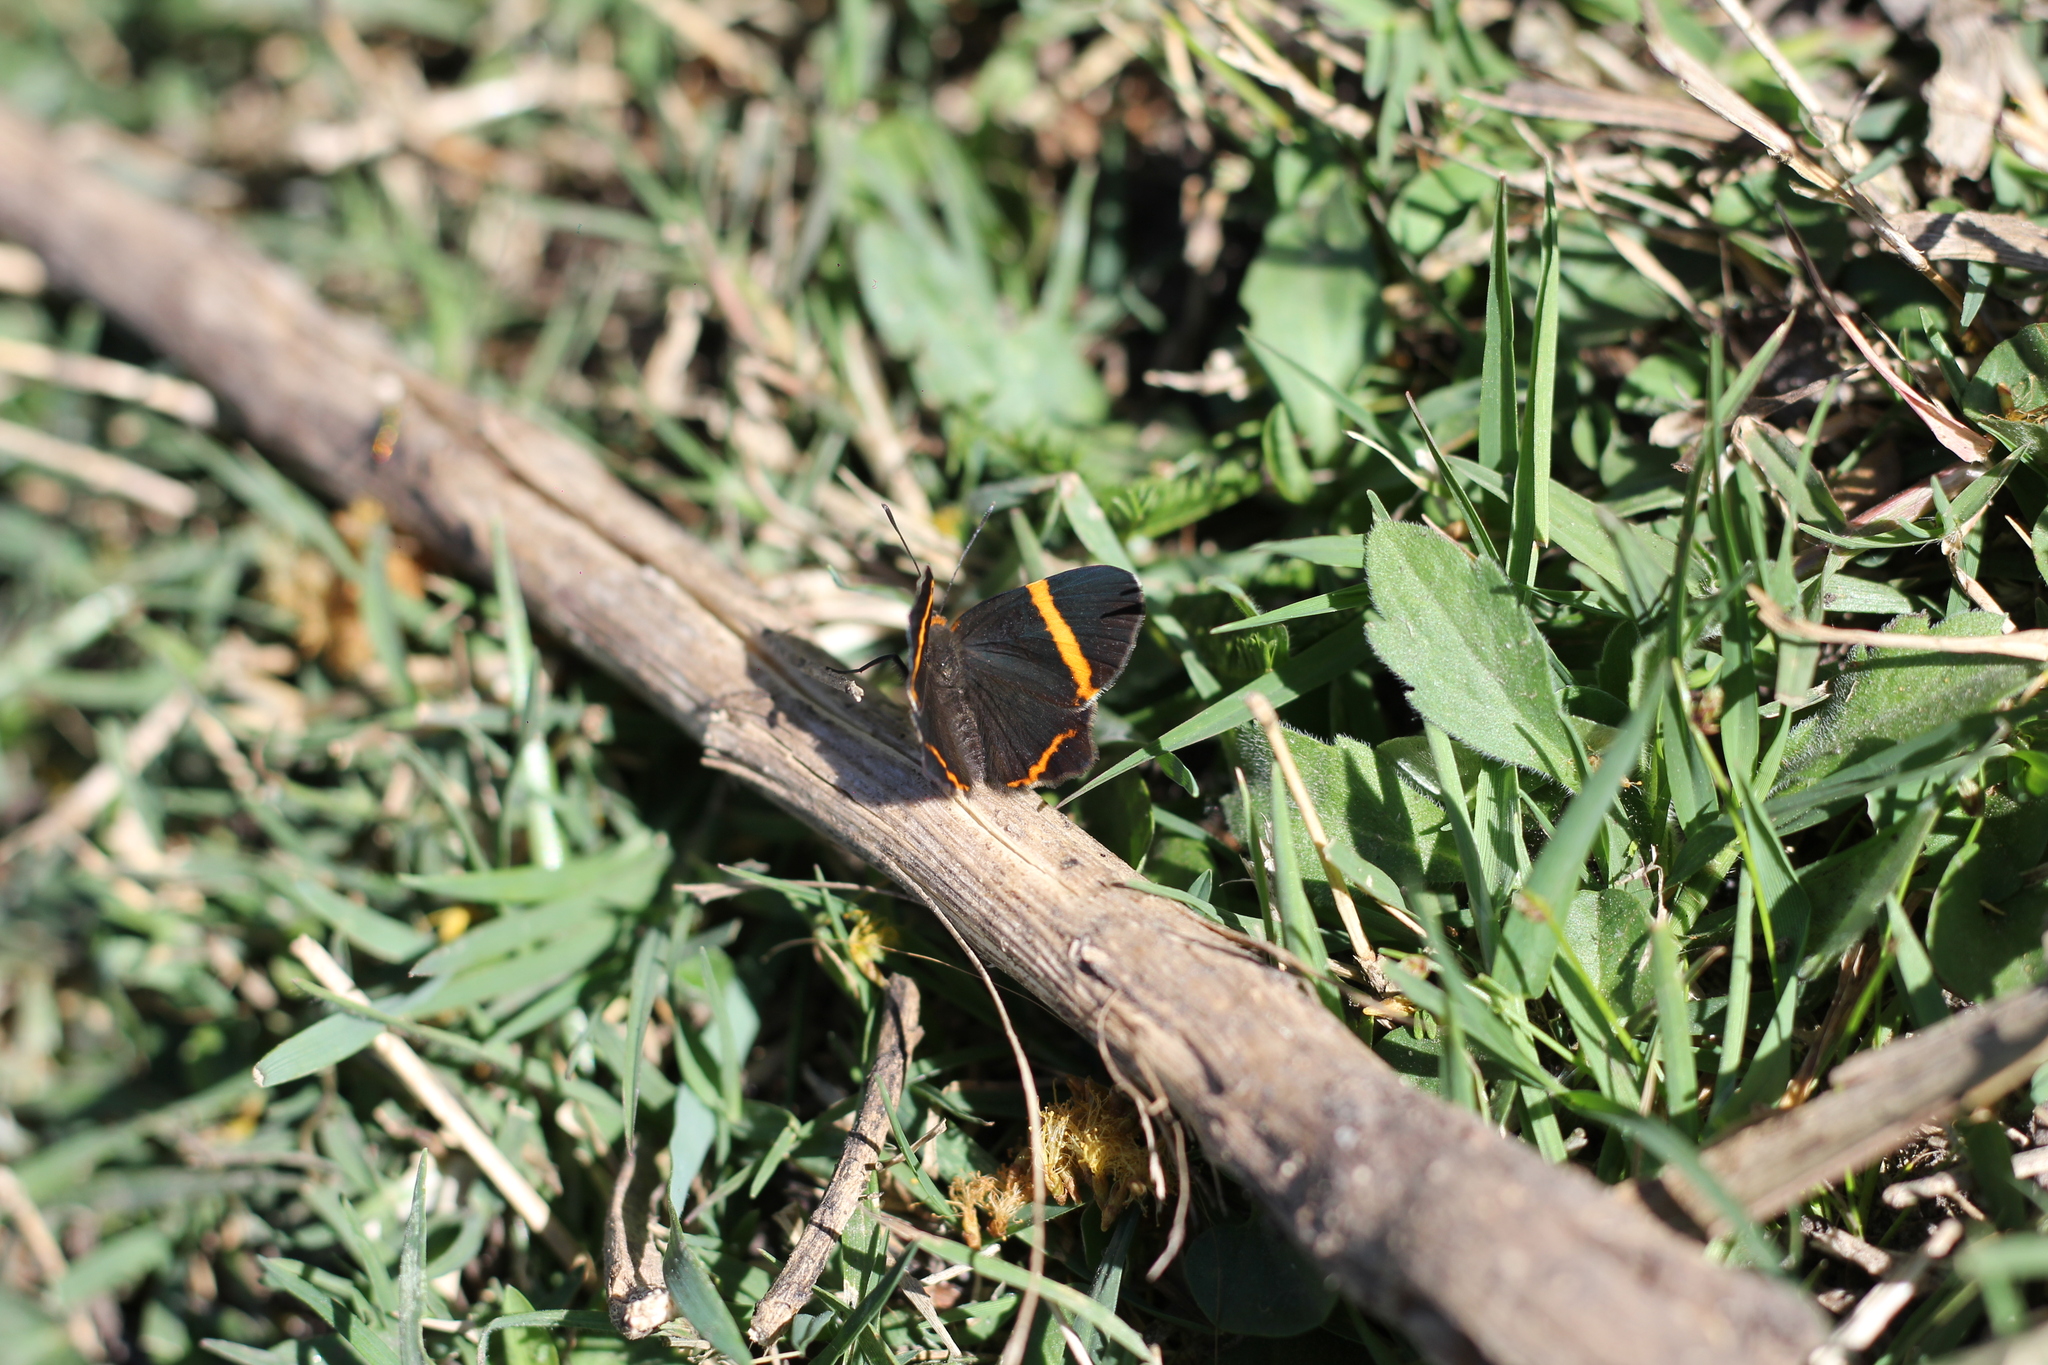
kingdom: Animalia
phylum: Arthropoda
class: Insecta
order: Lepidoptera
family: Riodinidae
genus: Riodina
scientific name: Riodina lysippoides
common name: Little dancer metalmark
